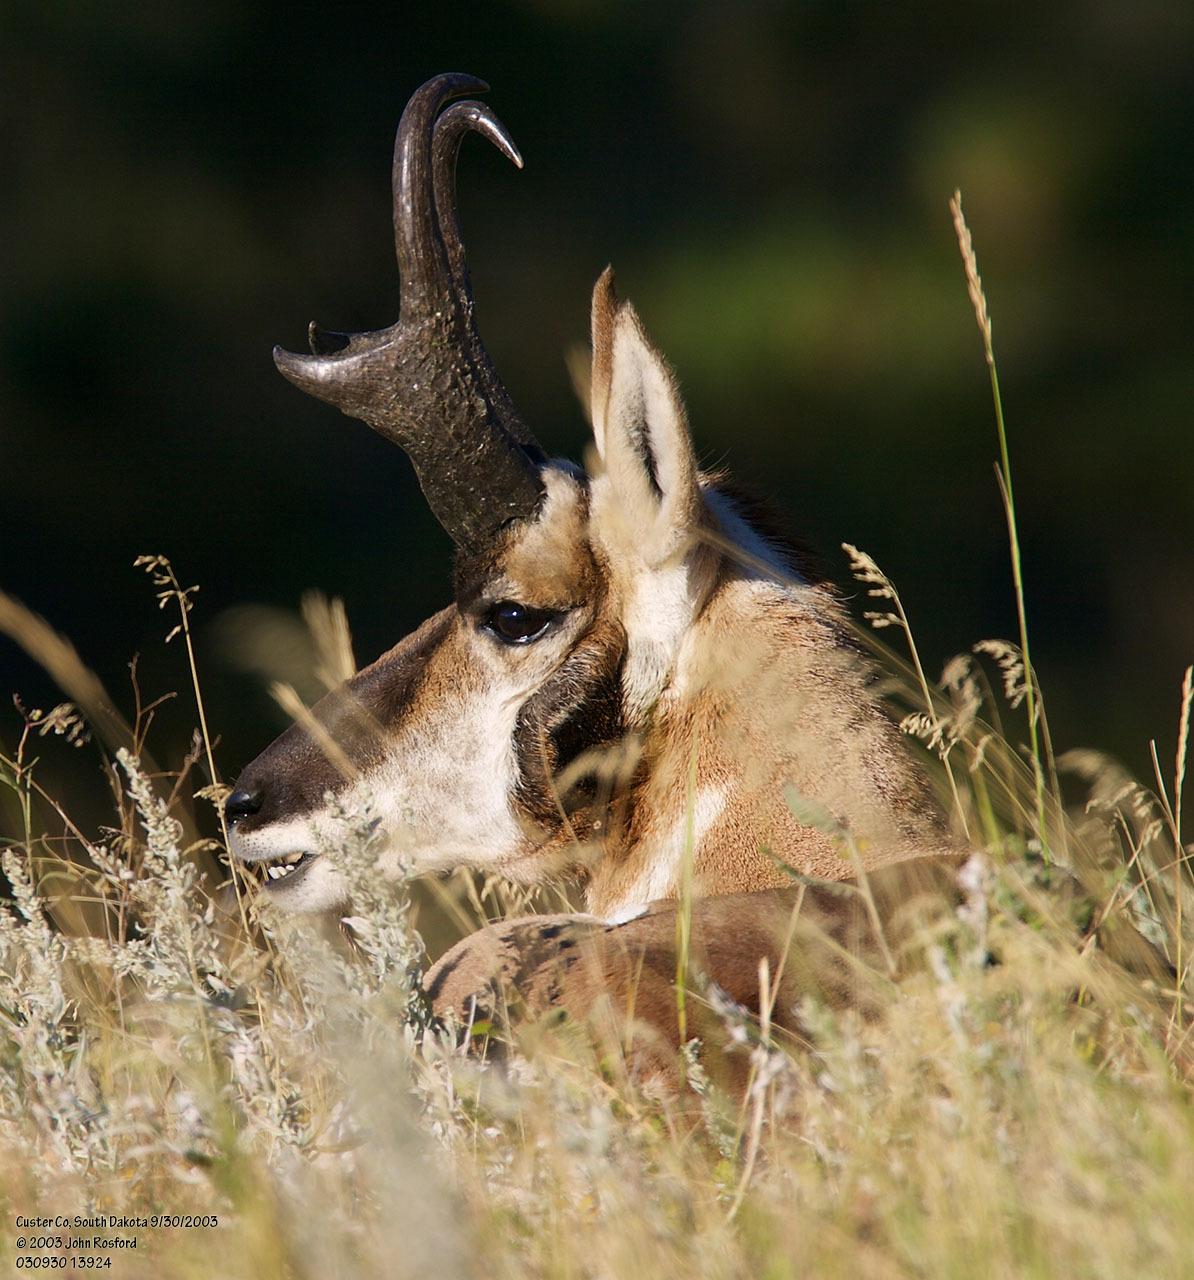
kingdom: Animalia
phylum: Chordata
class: Mammalia
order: Artiodactyla
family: Antilocapridae
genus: Antilocapra
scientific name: Antilocapra americana
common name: Pronghorn
